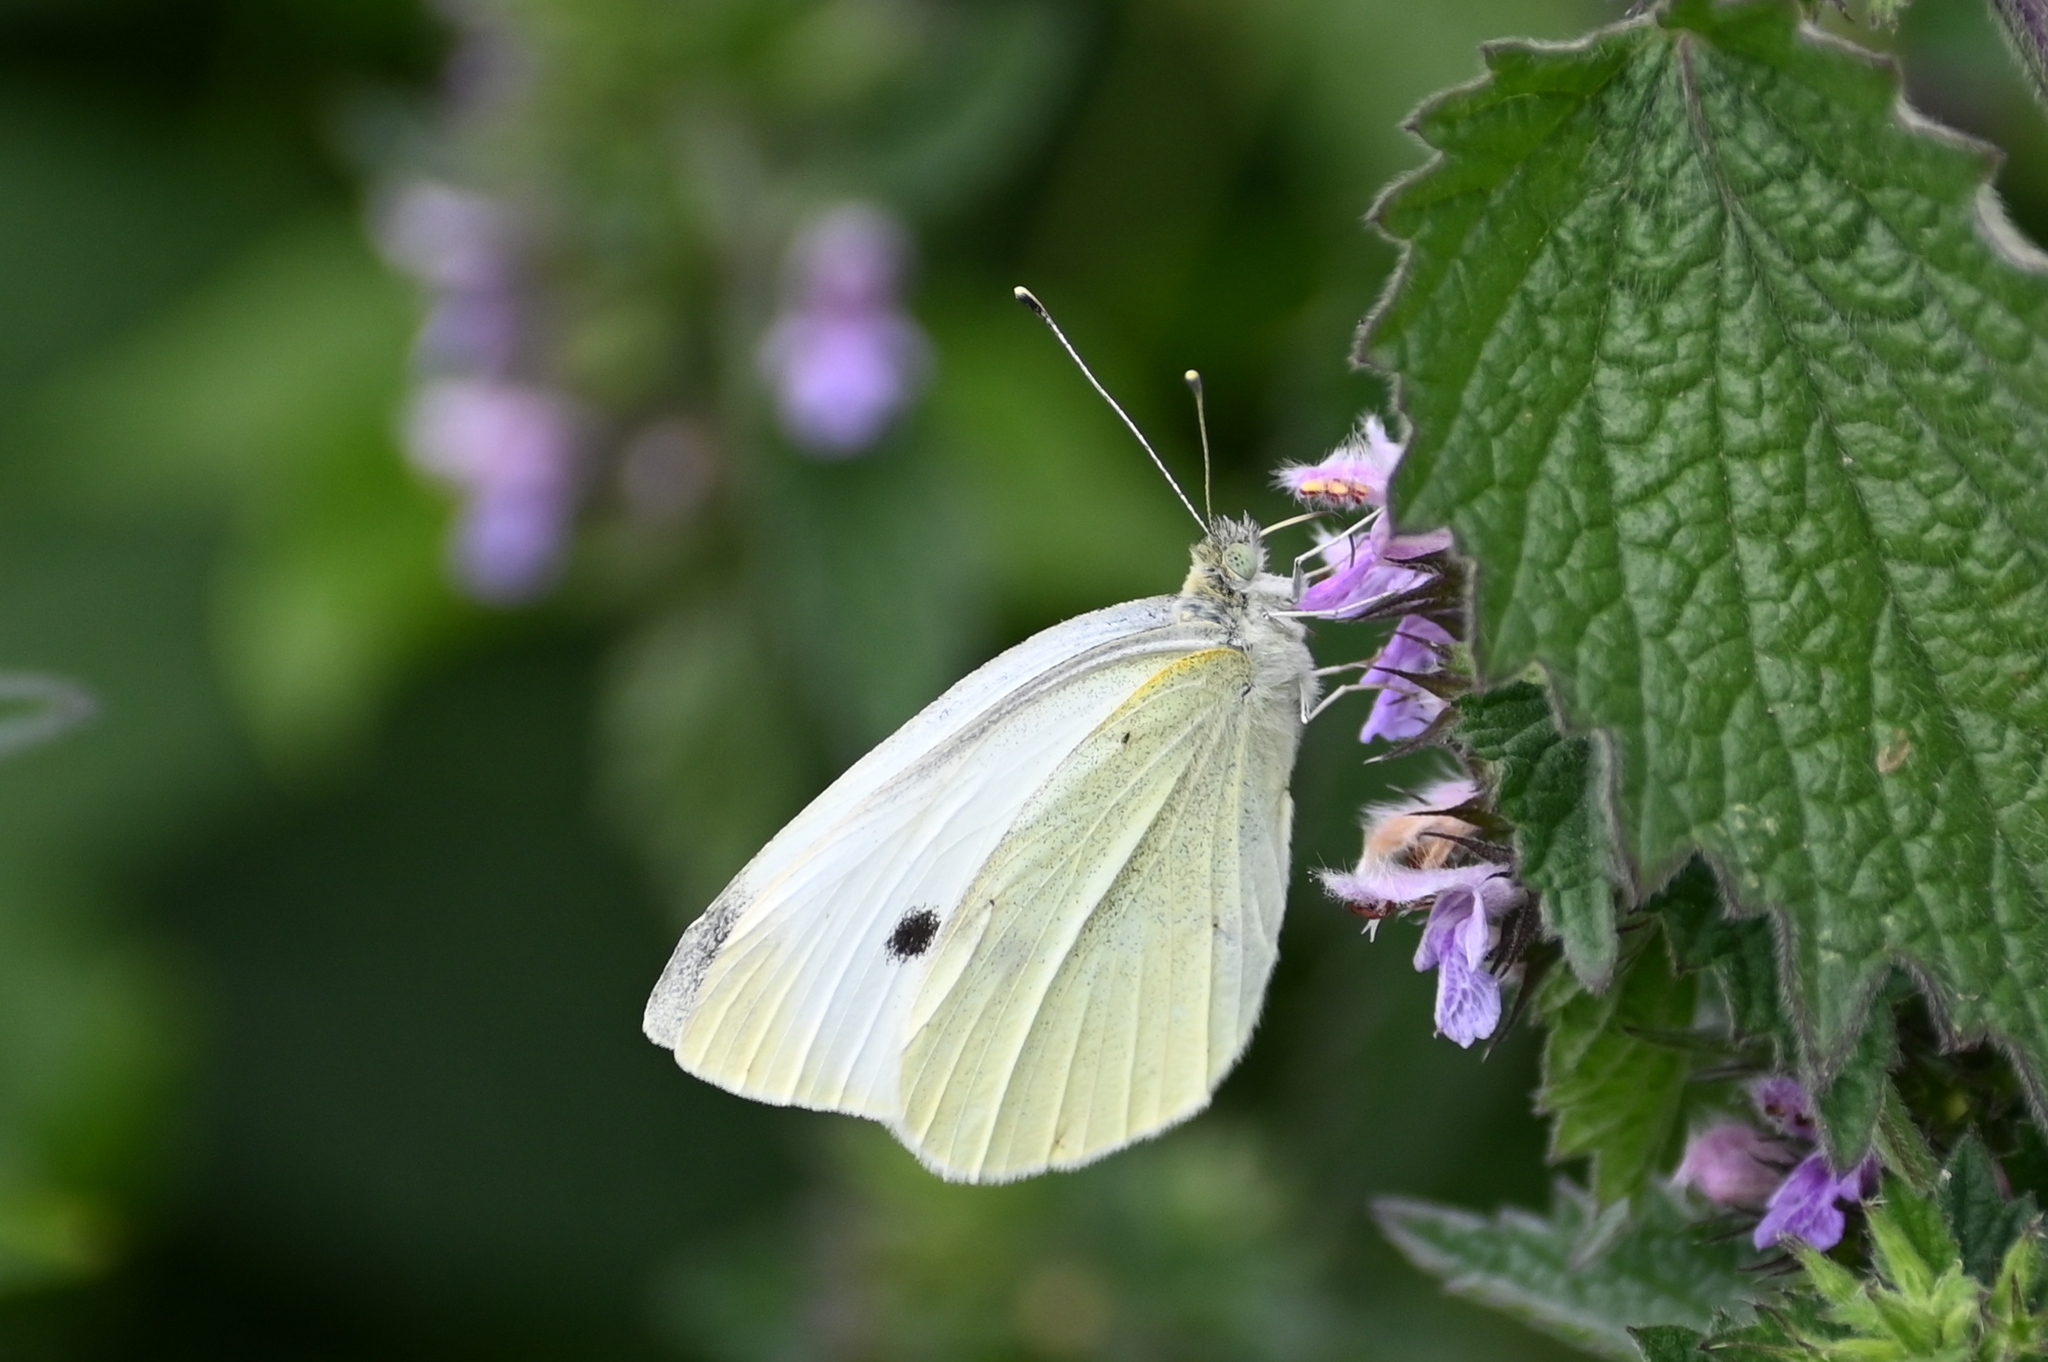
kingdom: Animalia
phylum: Arthropoda
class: Insecta
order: Lepidoptera
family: Pieridae
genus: Pieris
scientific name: Pieris rapae
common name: Small white
